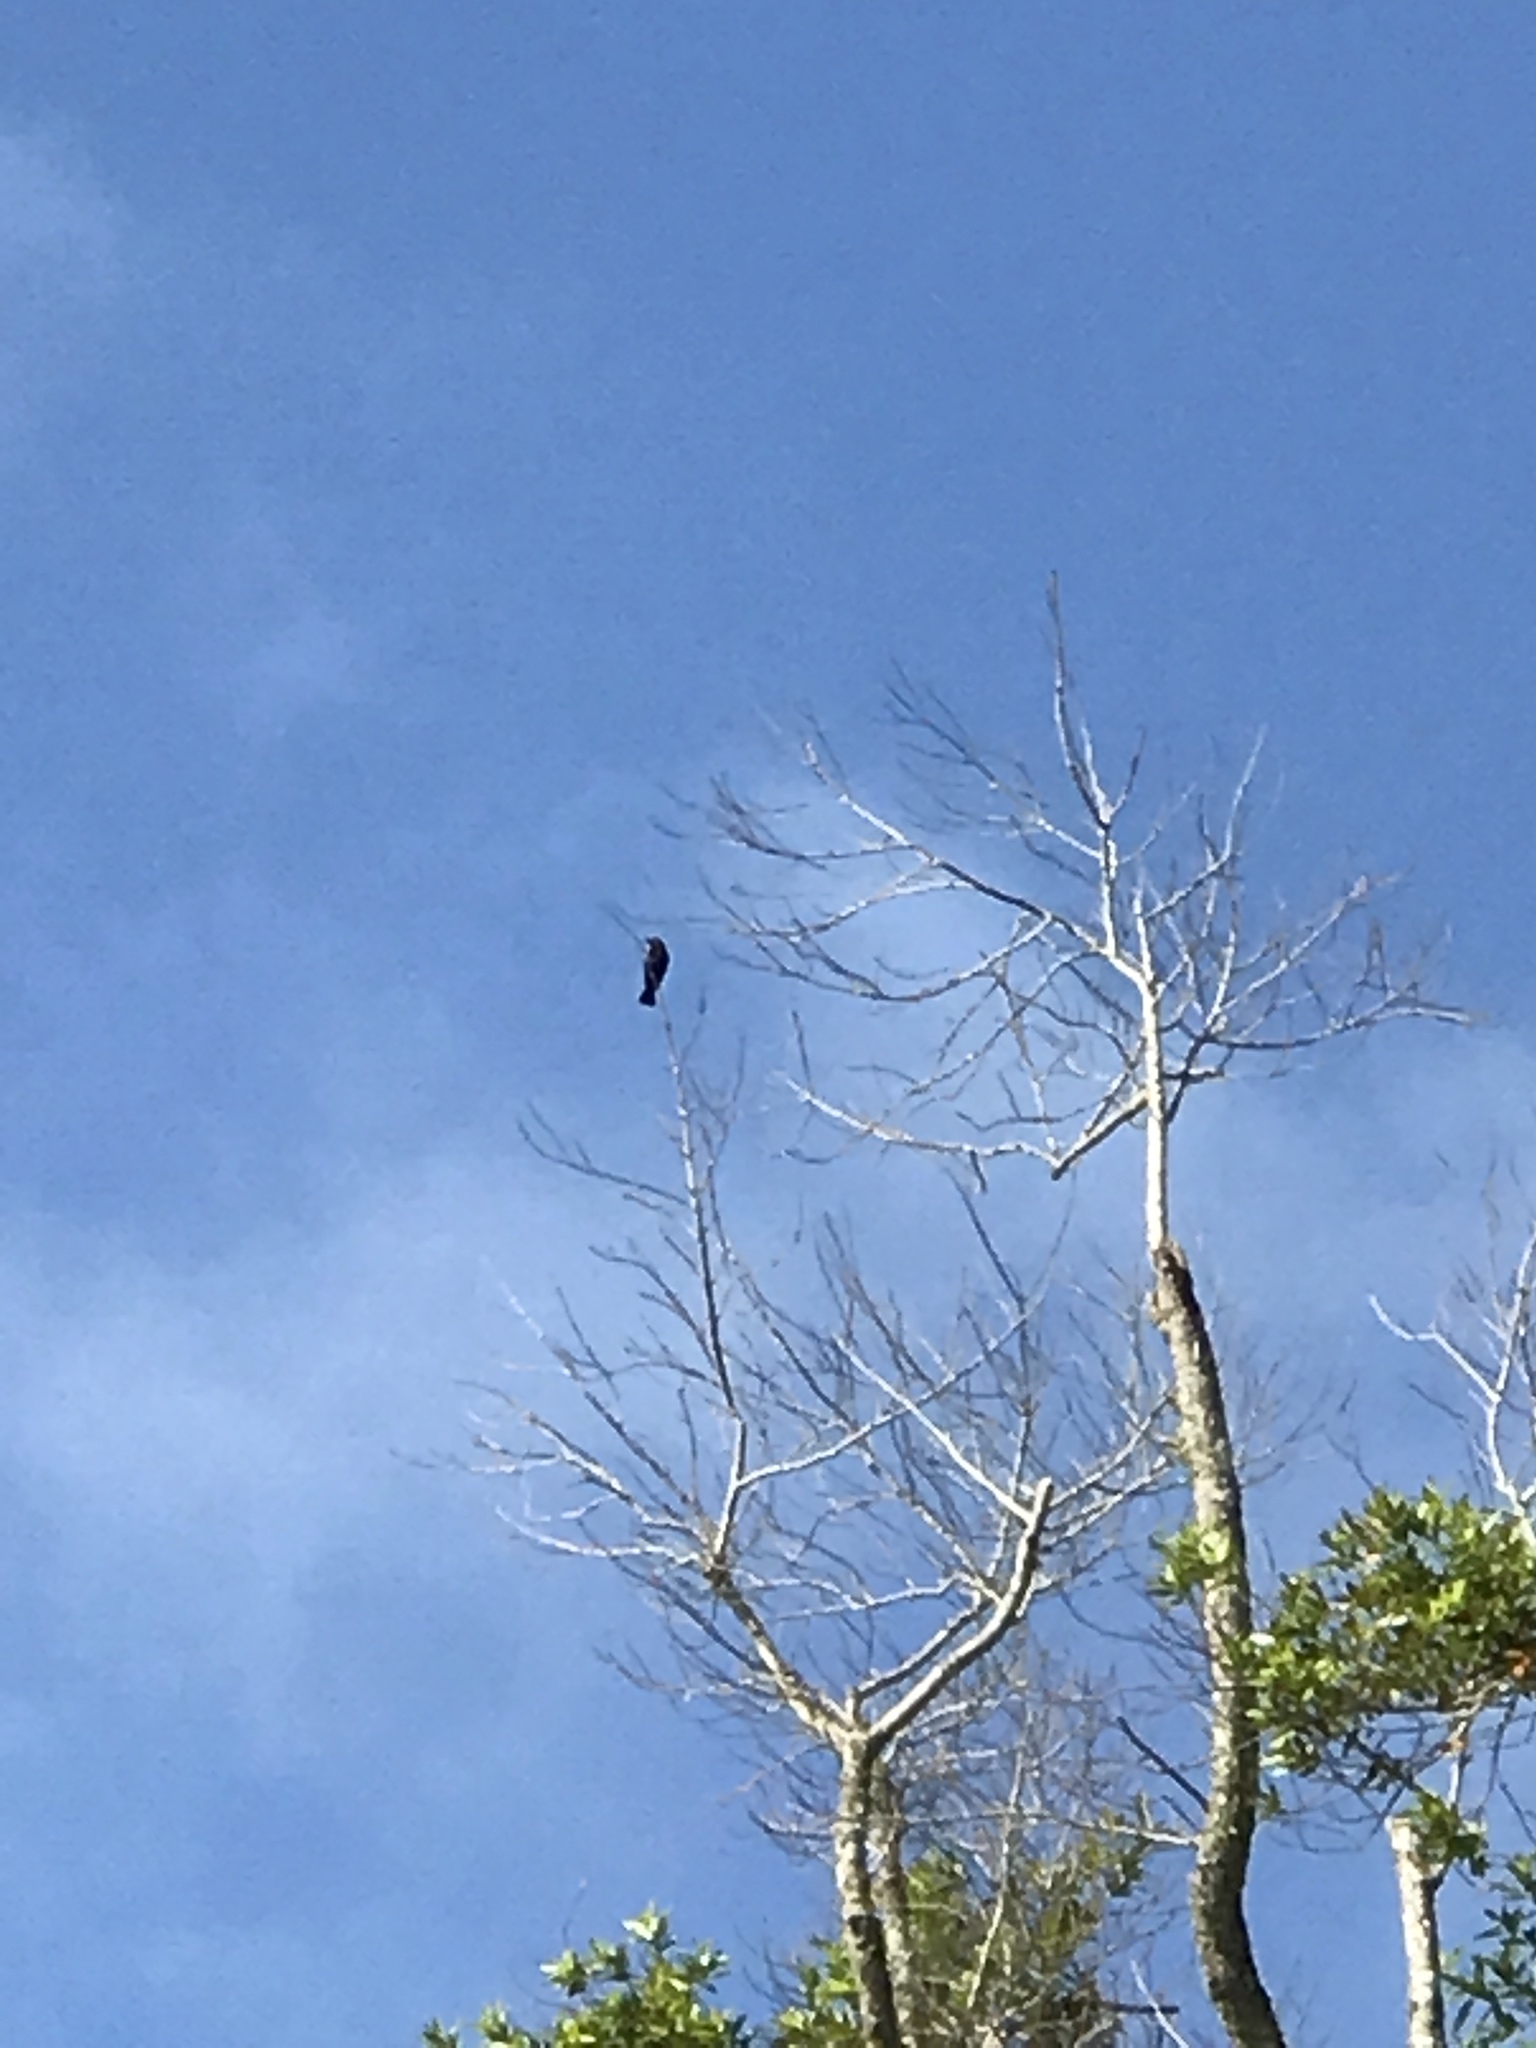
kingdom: Animalia
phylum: Chordata
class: Aves
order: Passeriformes
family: Icteridae
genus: Molothrus
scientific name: Molothrus ater
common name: Brown-headed cowbird
